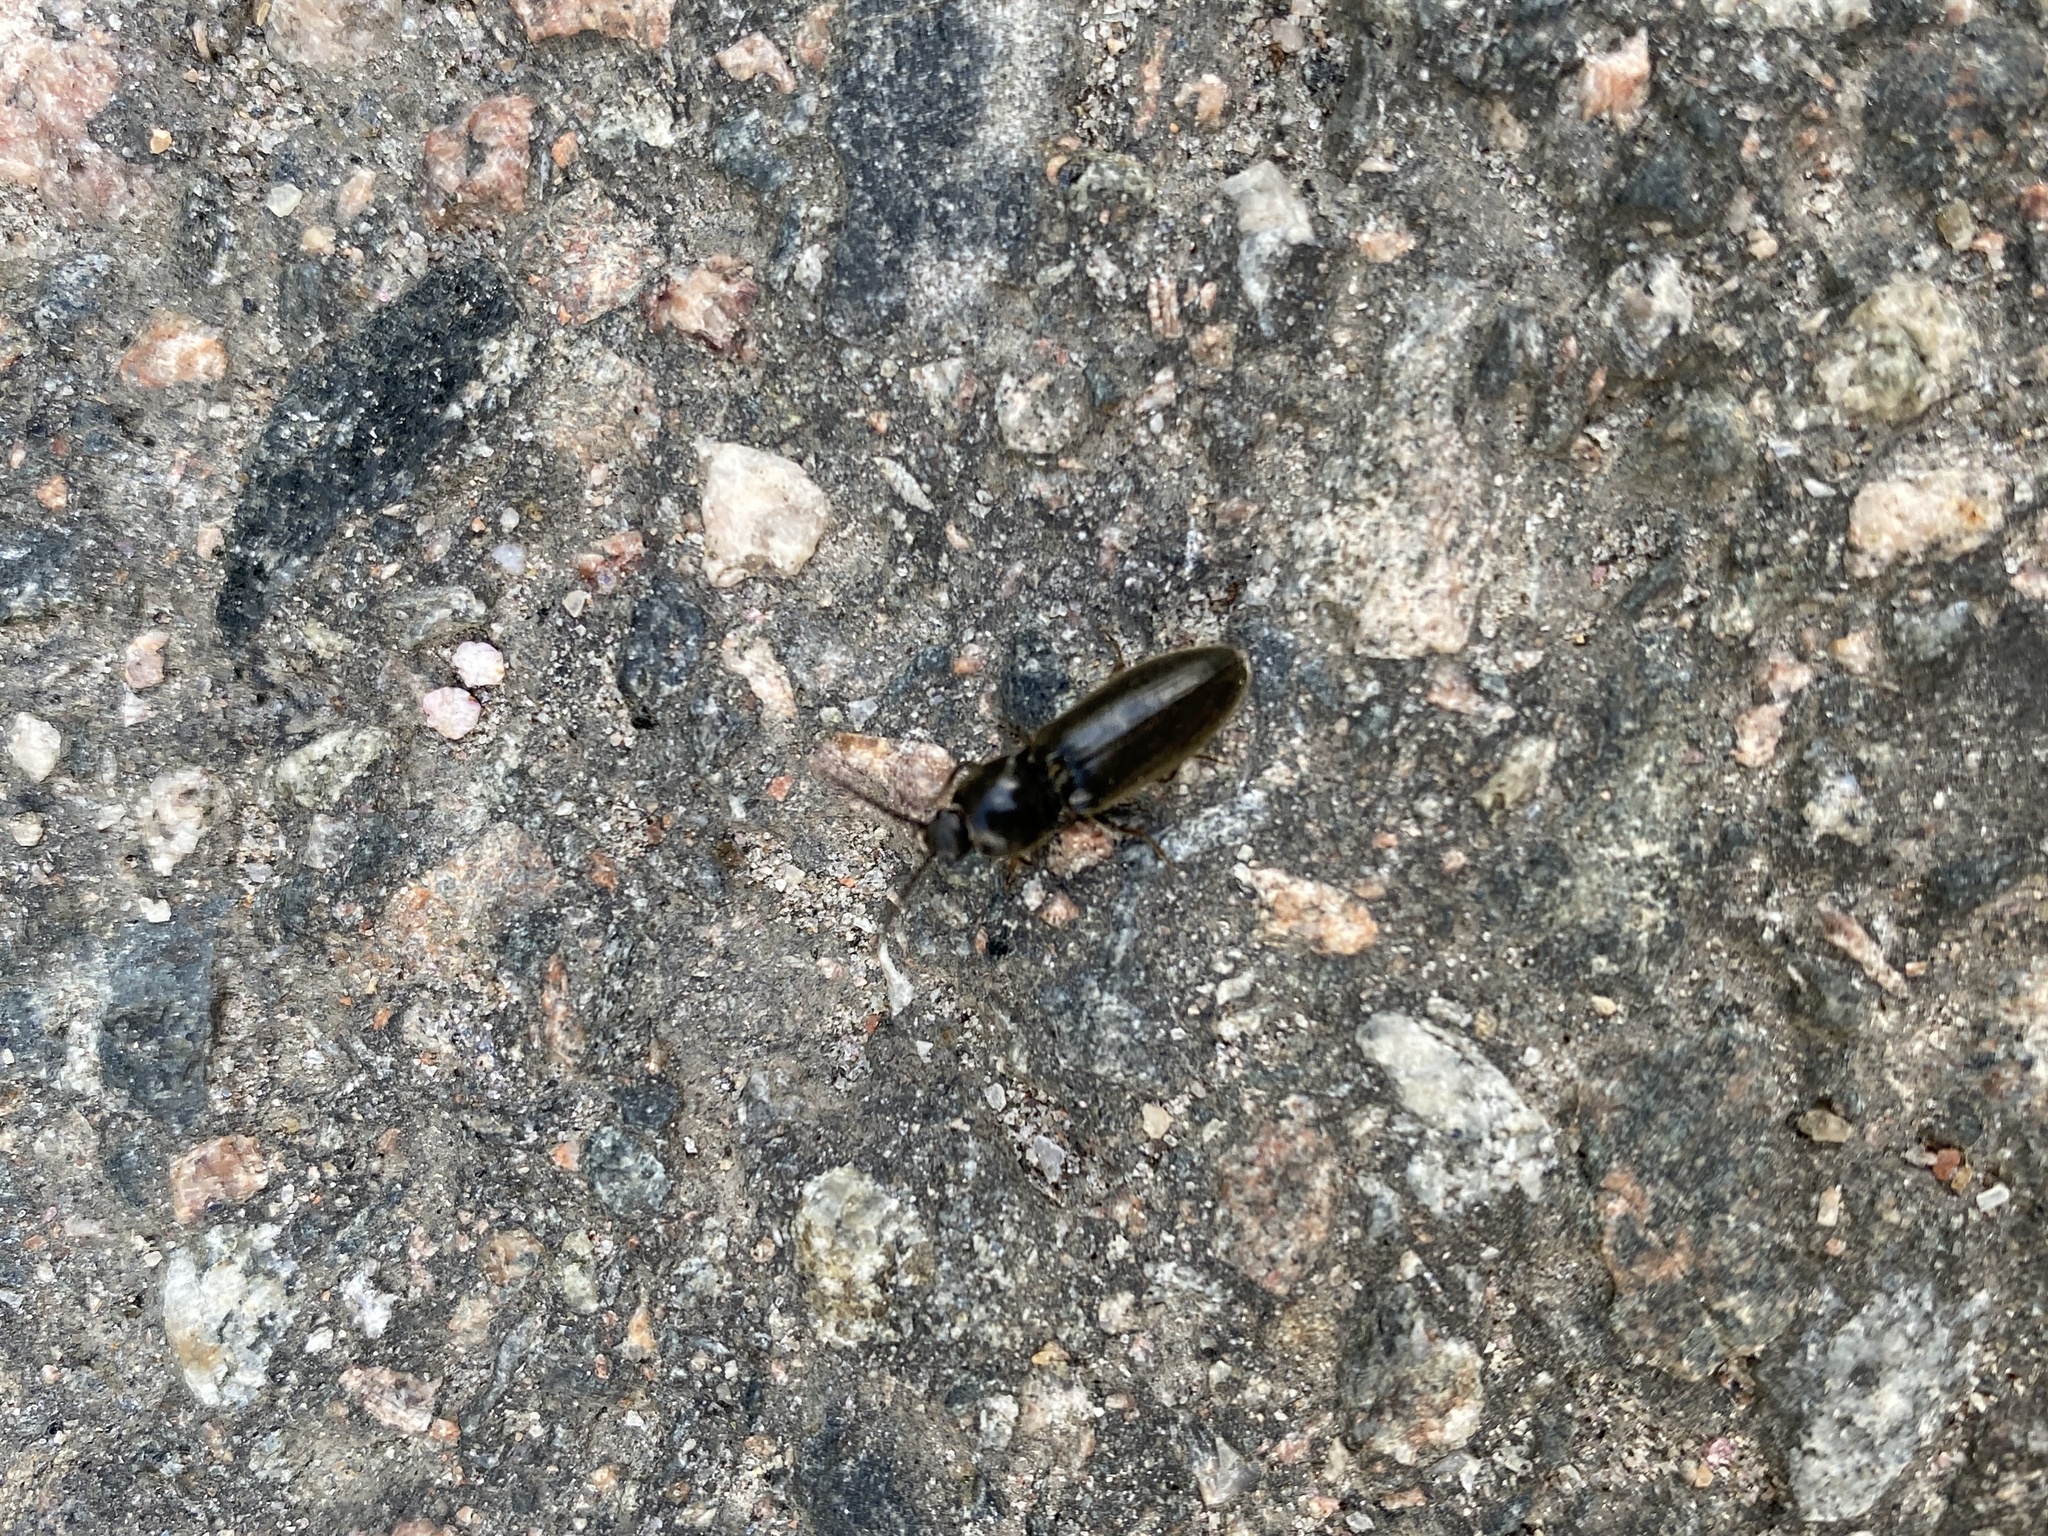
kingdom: Animalia
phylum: Arthropoda
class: Insecta
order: Coleoptera
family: Elateridae
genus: Hemicrepidius
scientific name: Hemicrepidius niger
